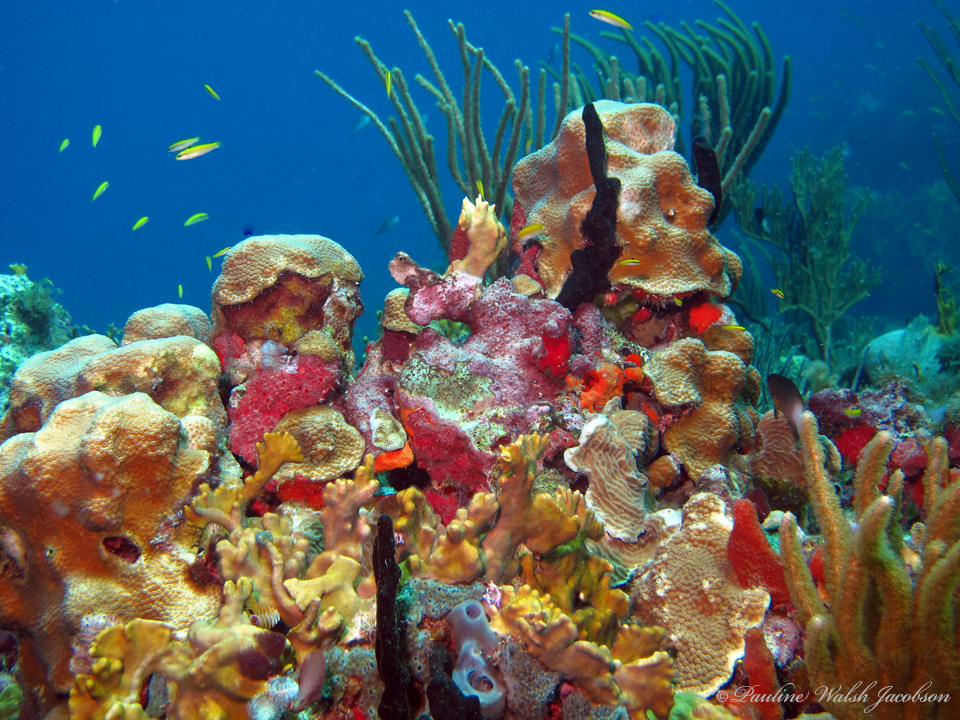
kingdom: Animalia
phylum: Chordata
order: Perciformes
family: Labridae
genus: Thalassoma
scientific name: Thalassoma bifasciatum
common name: Bluehead wrasse
